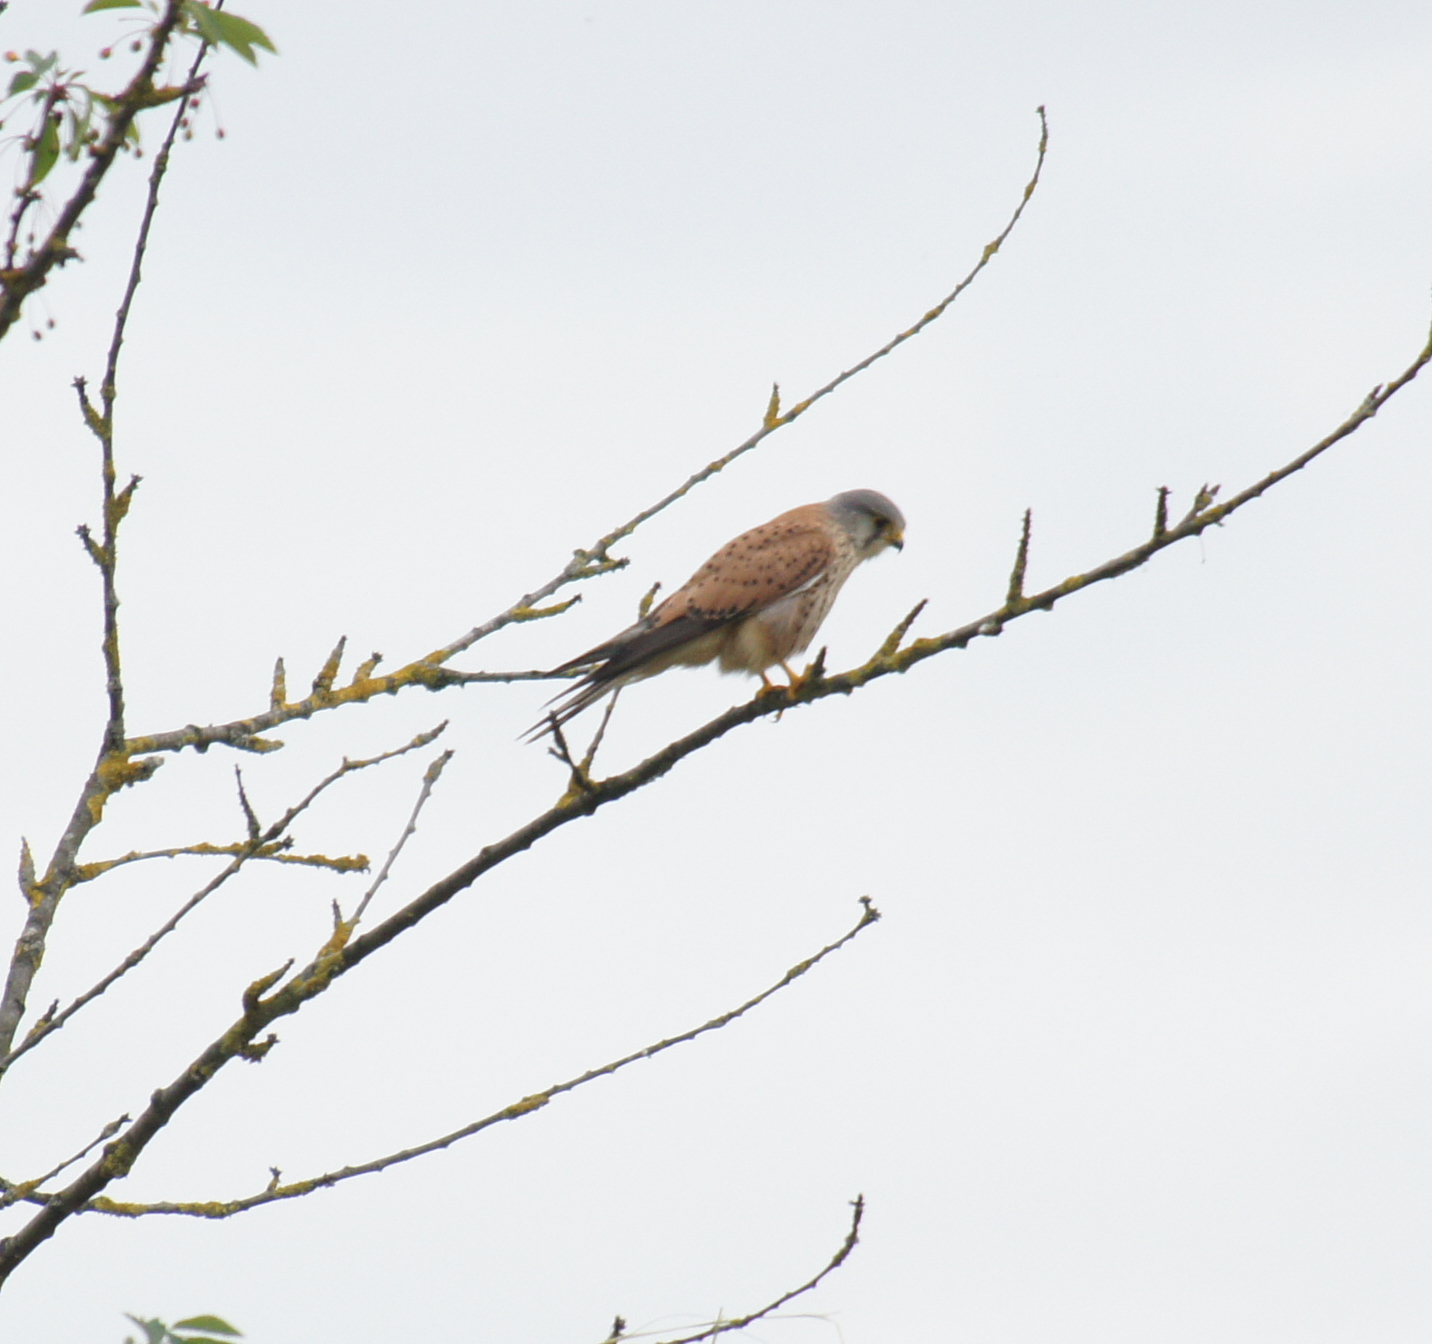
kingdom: Animalia
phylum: Chordata
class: Aves
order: Falconiformes
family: Falconidae
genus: Falco
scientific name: Falco tinnunculus
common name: Common kestrel
